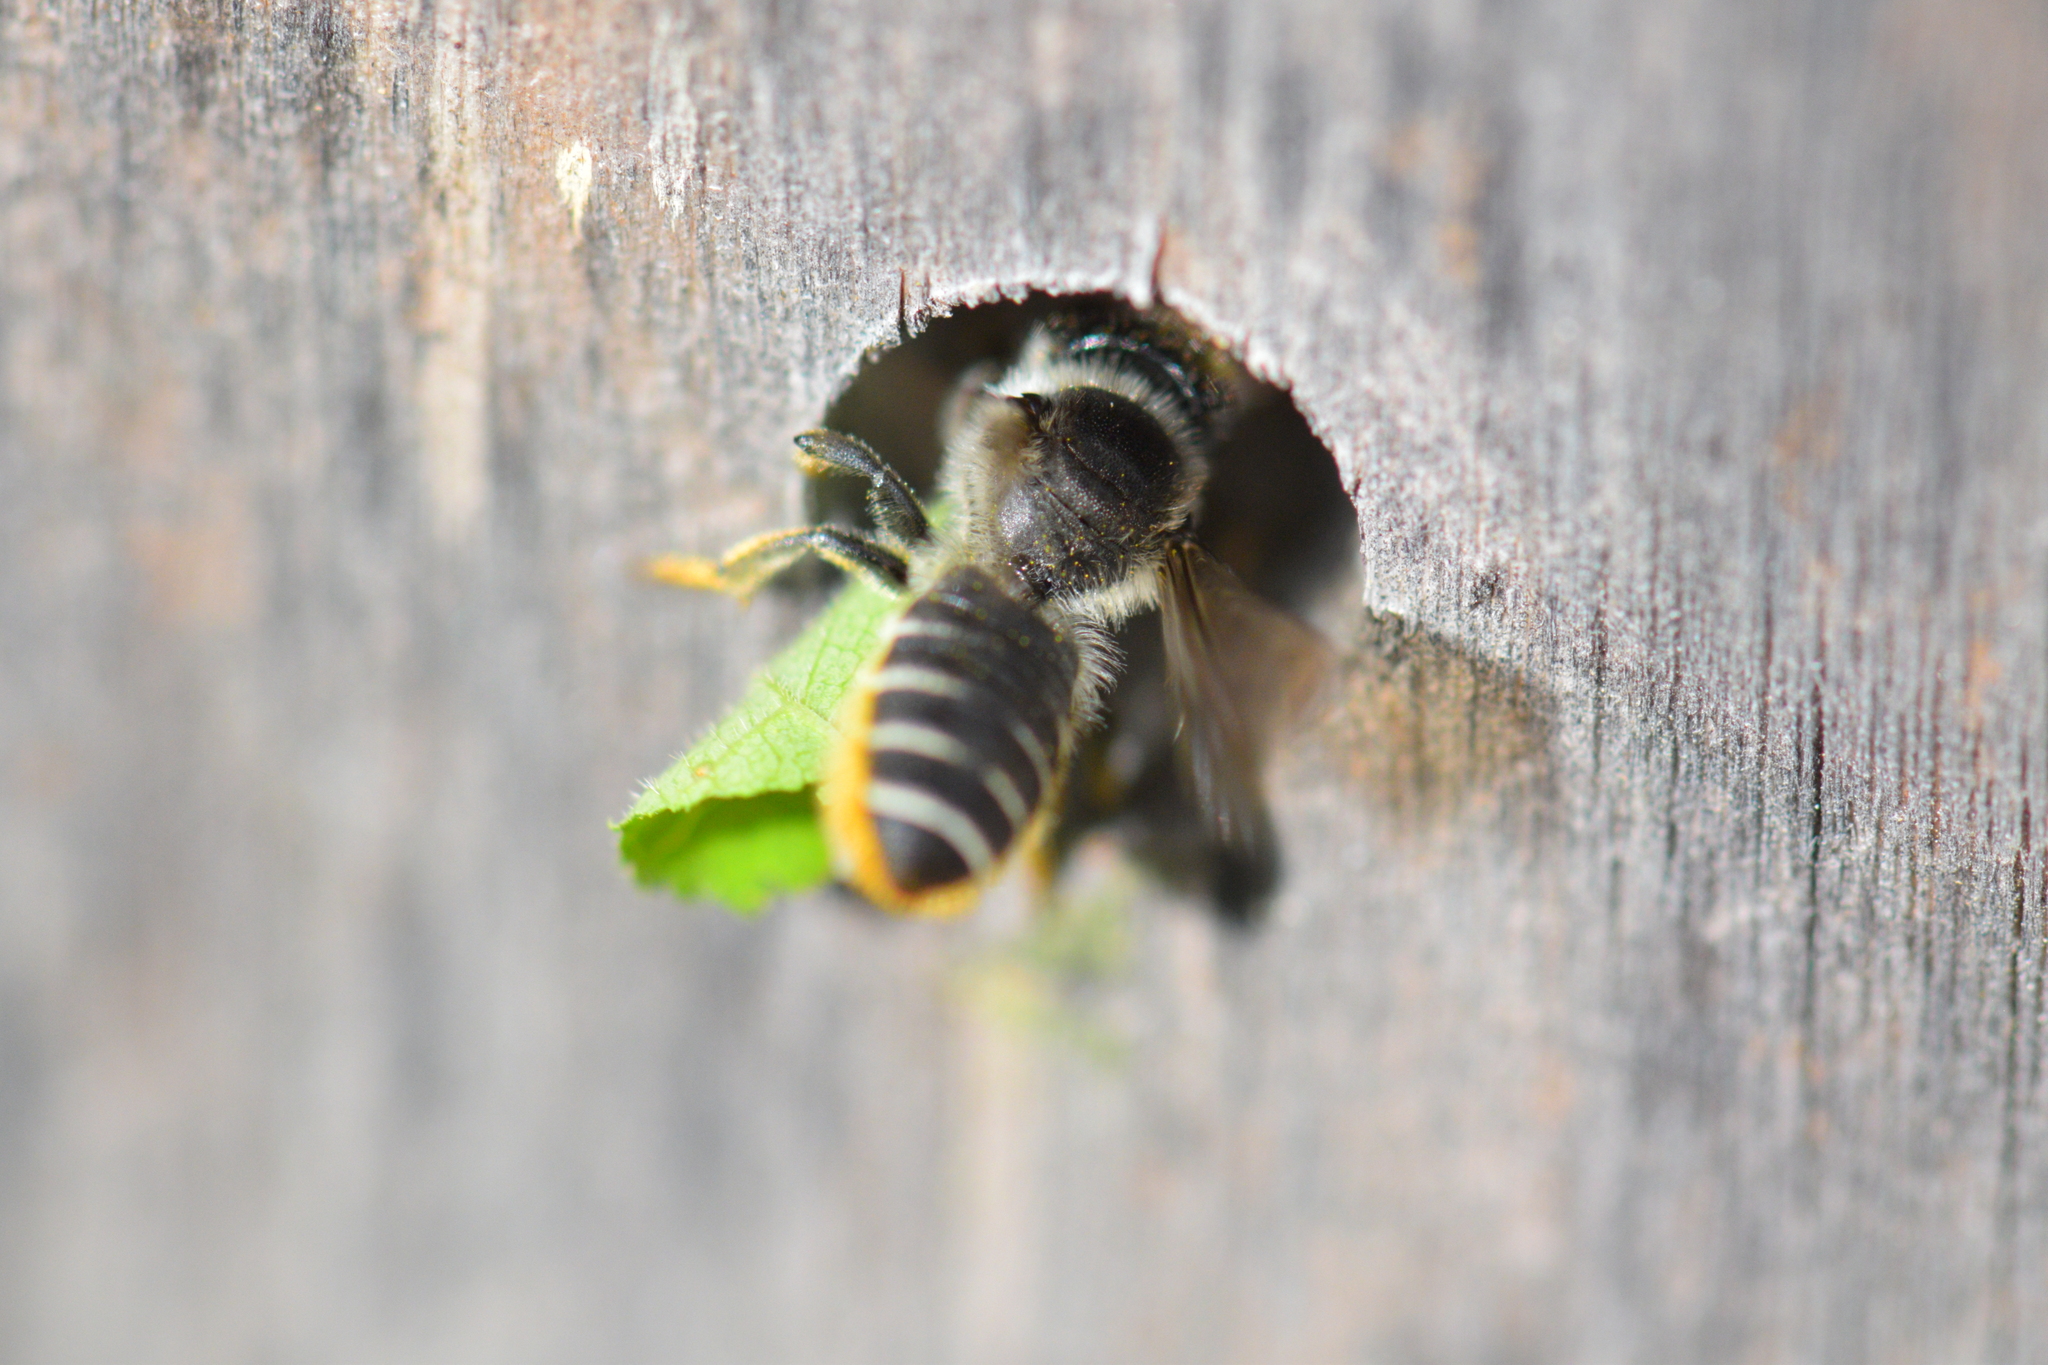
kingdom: Animalia
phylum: Arthropoda
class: Insecta
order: Hymenoptera
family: Megachilidae
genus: Megachile
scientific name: Megachile relativa
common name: Golden-tailed leafcutter
